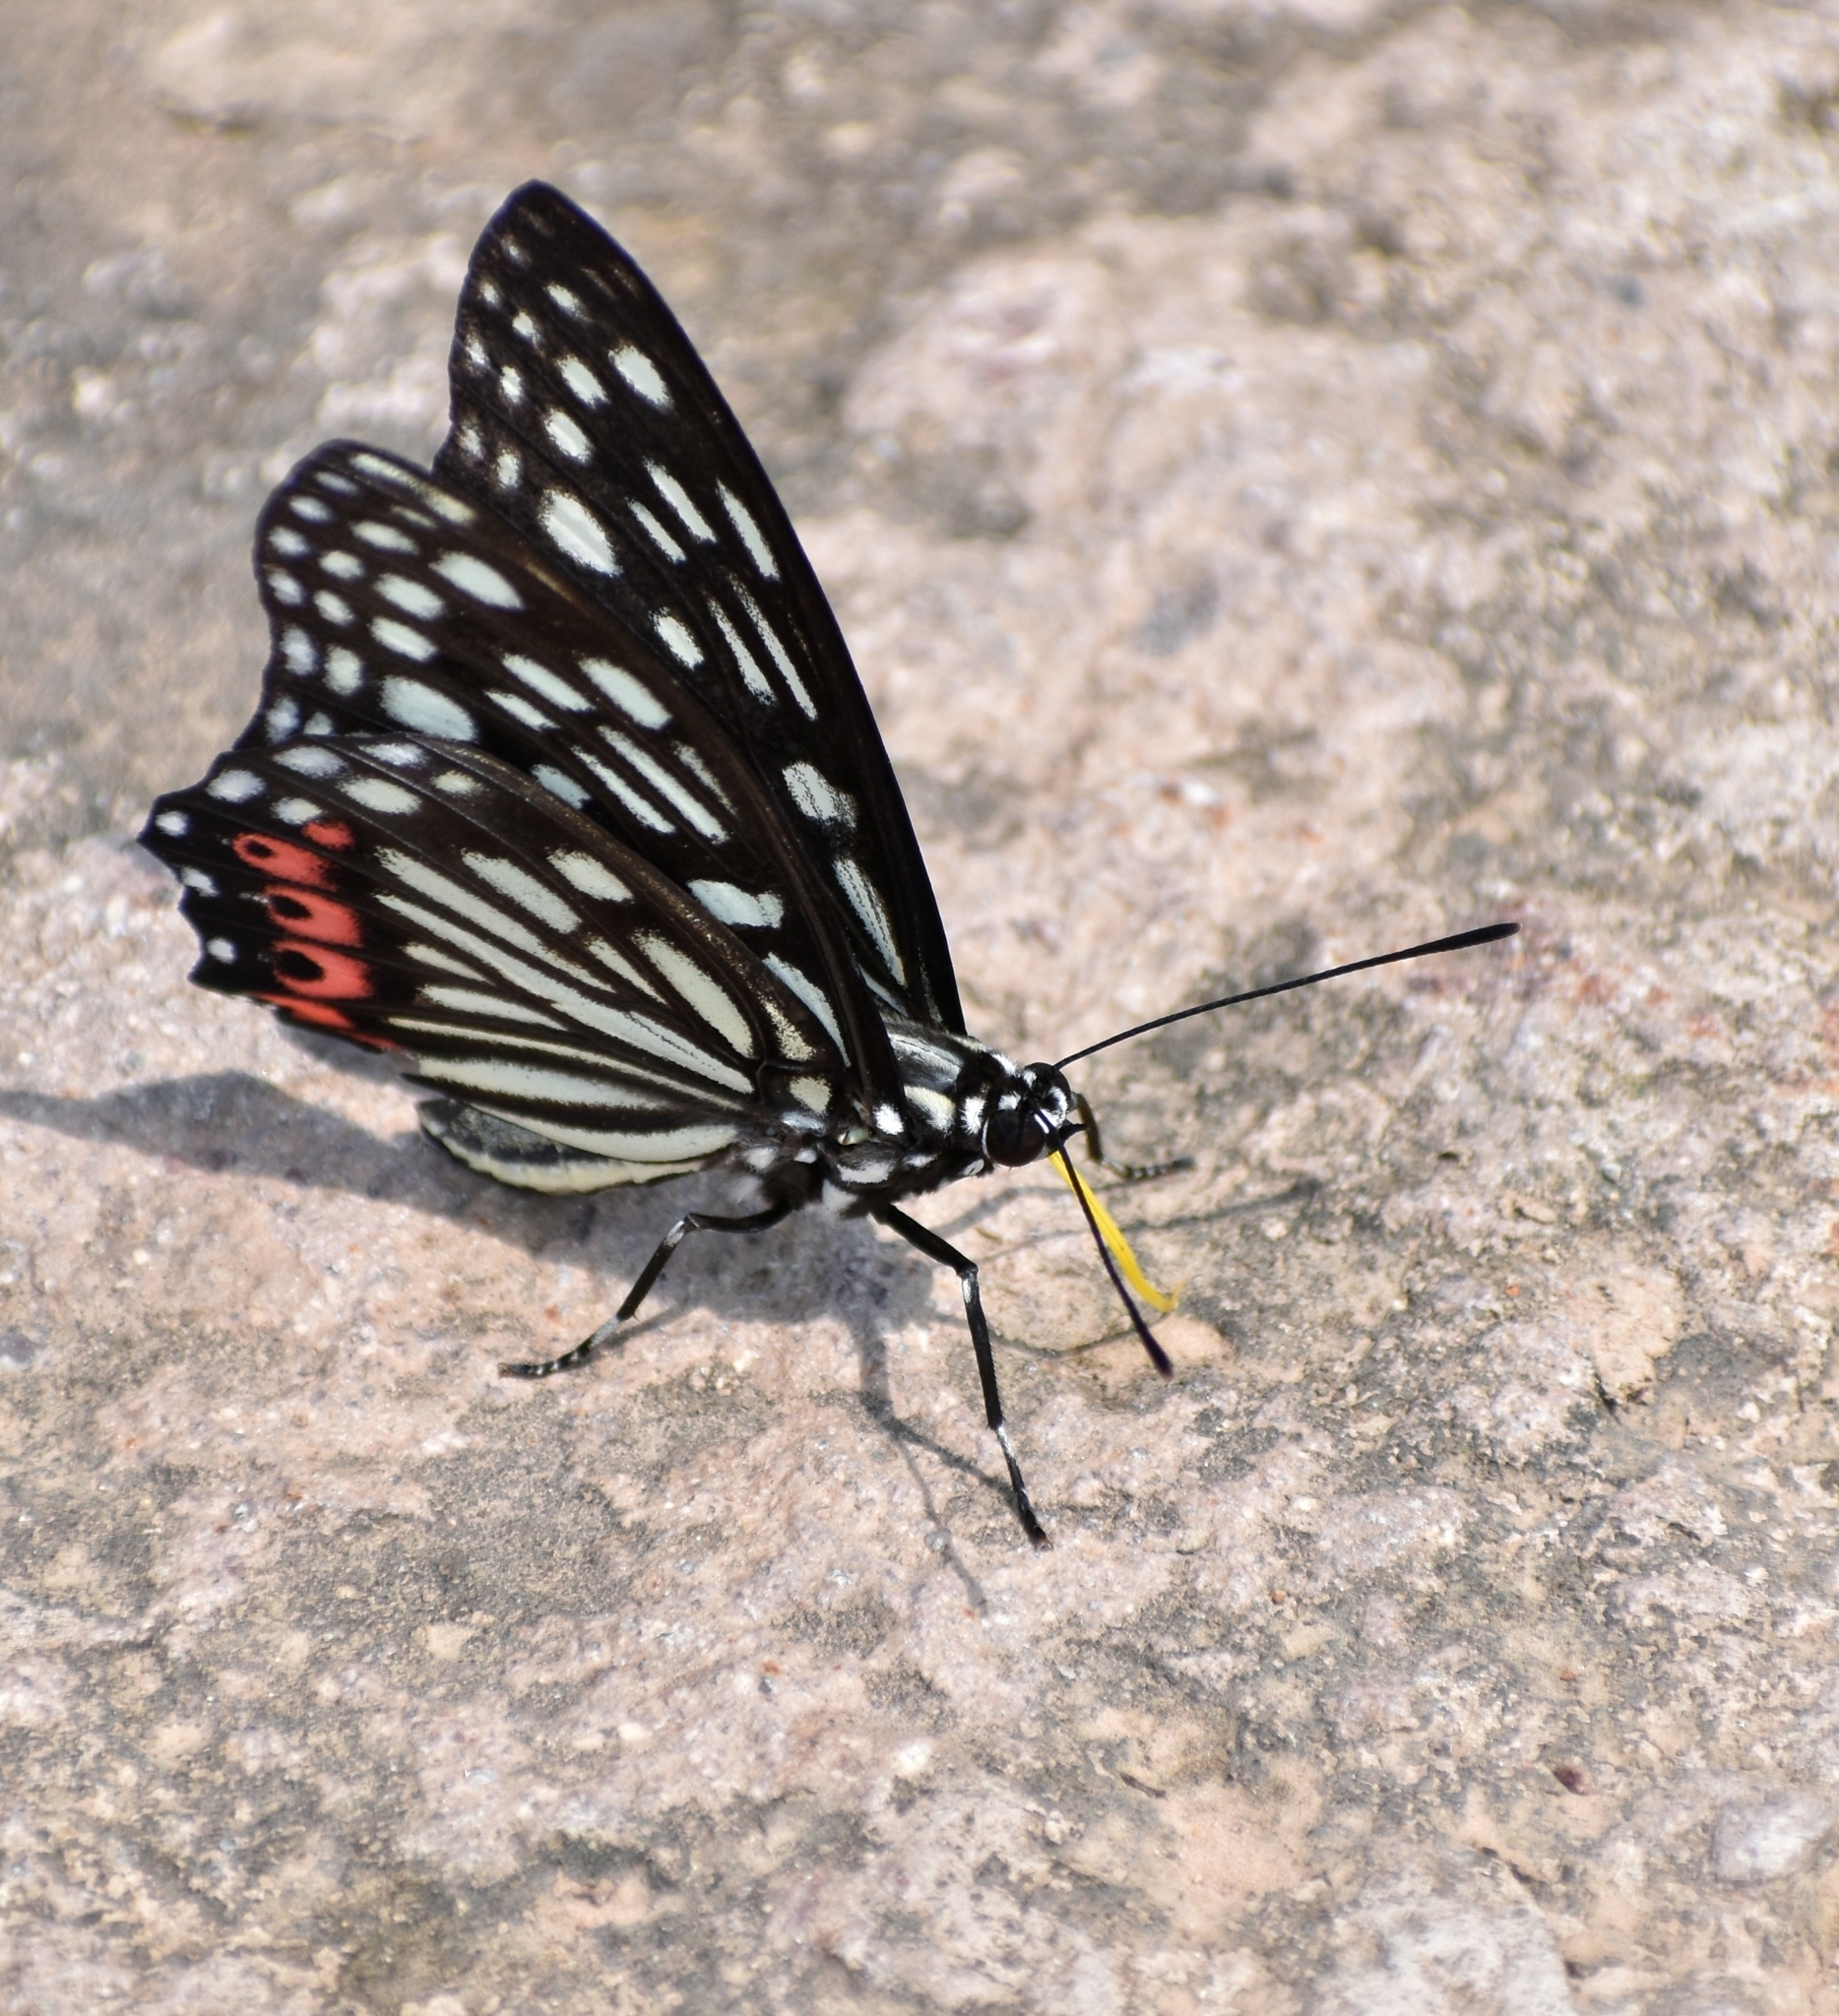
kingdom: Animalia
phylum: Arthropoda
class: Insecta
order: Lepidoptera
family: Nymphalidae
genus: Hestina
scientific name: Hestina assimilis
